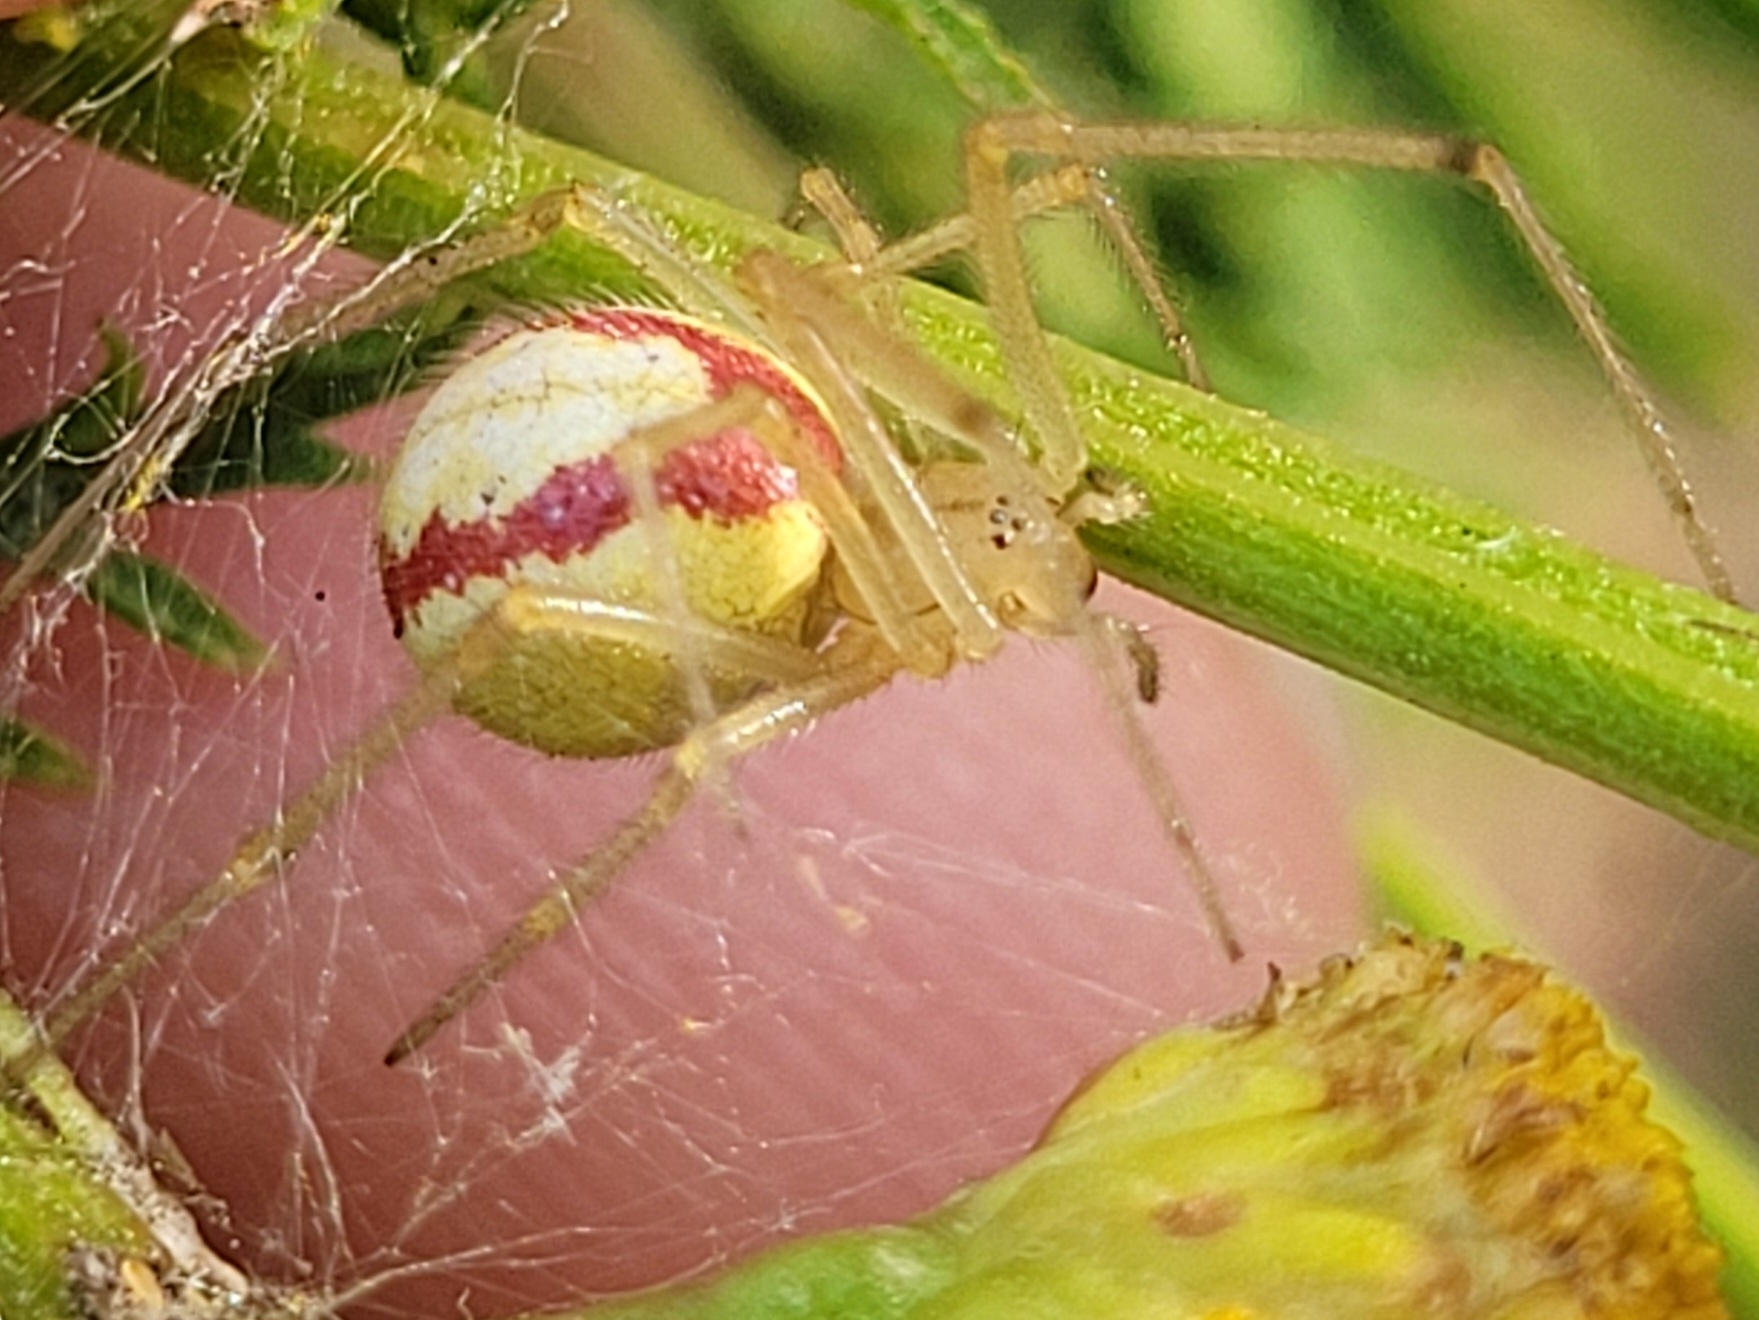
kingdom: Animalia
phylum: Arthropoda
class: Arachnida
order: Araneae
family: Theridiidae
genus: Enoplognatha
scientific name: Enoplognatha
